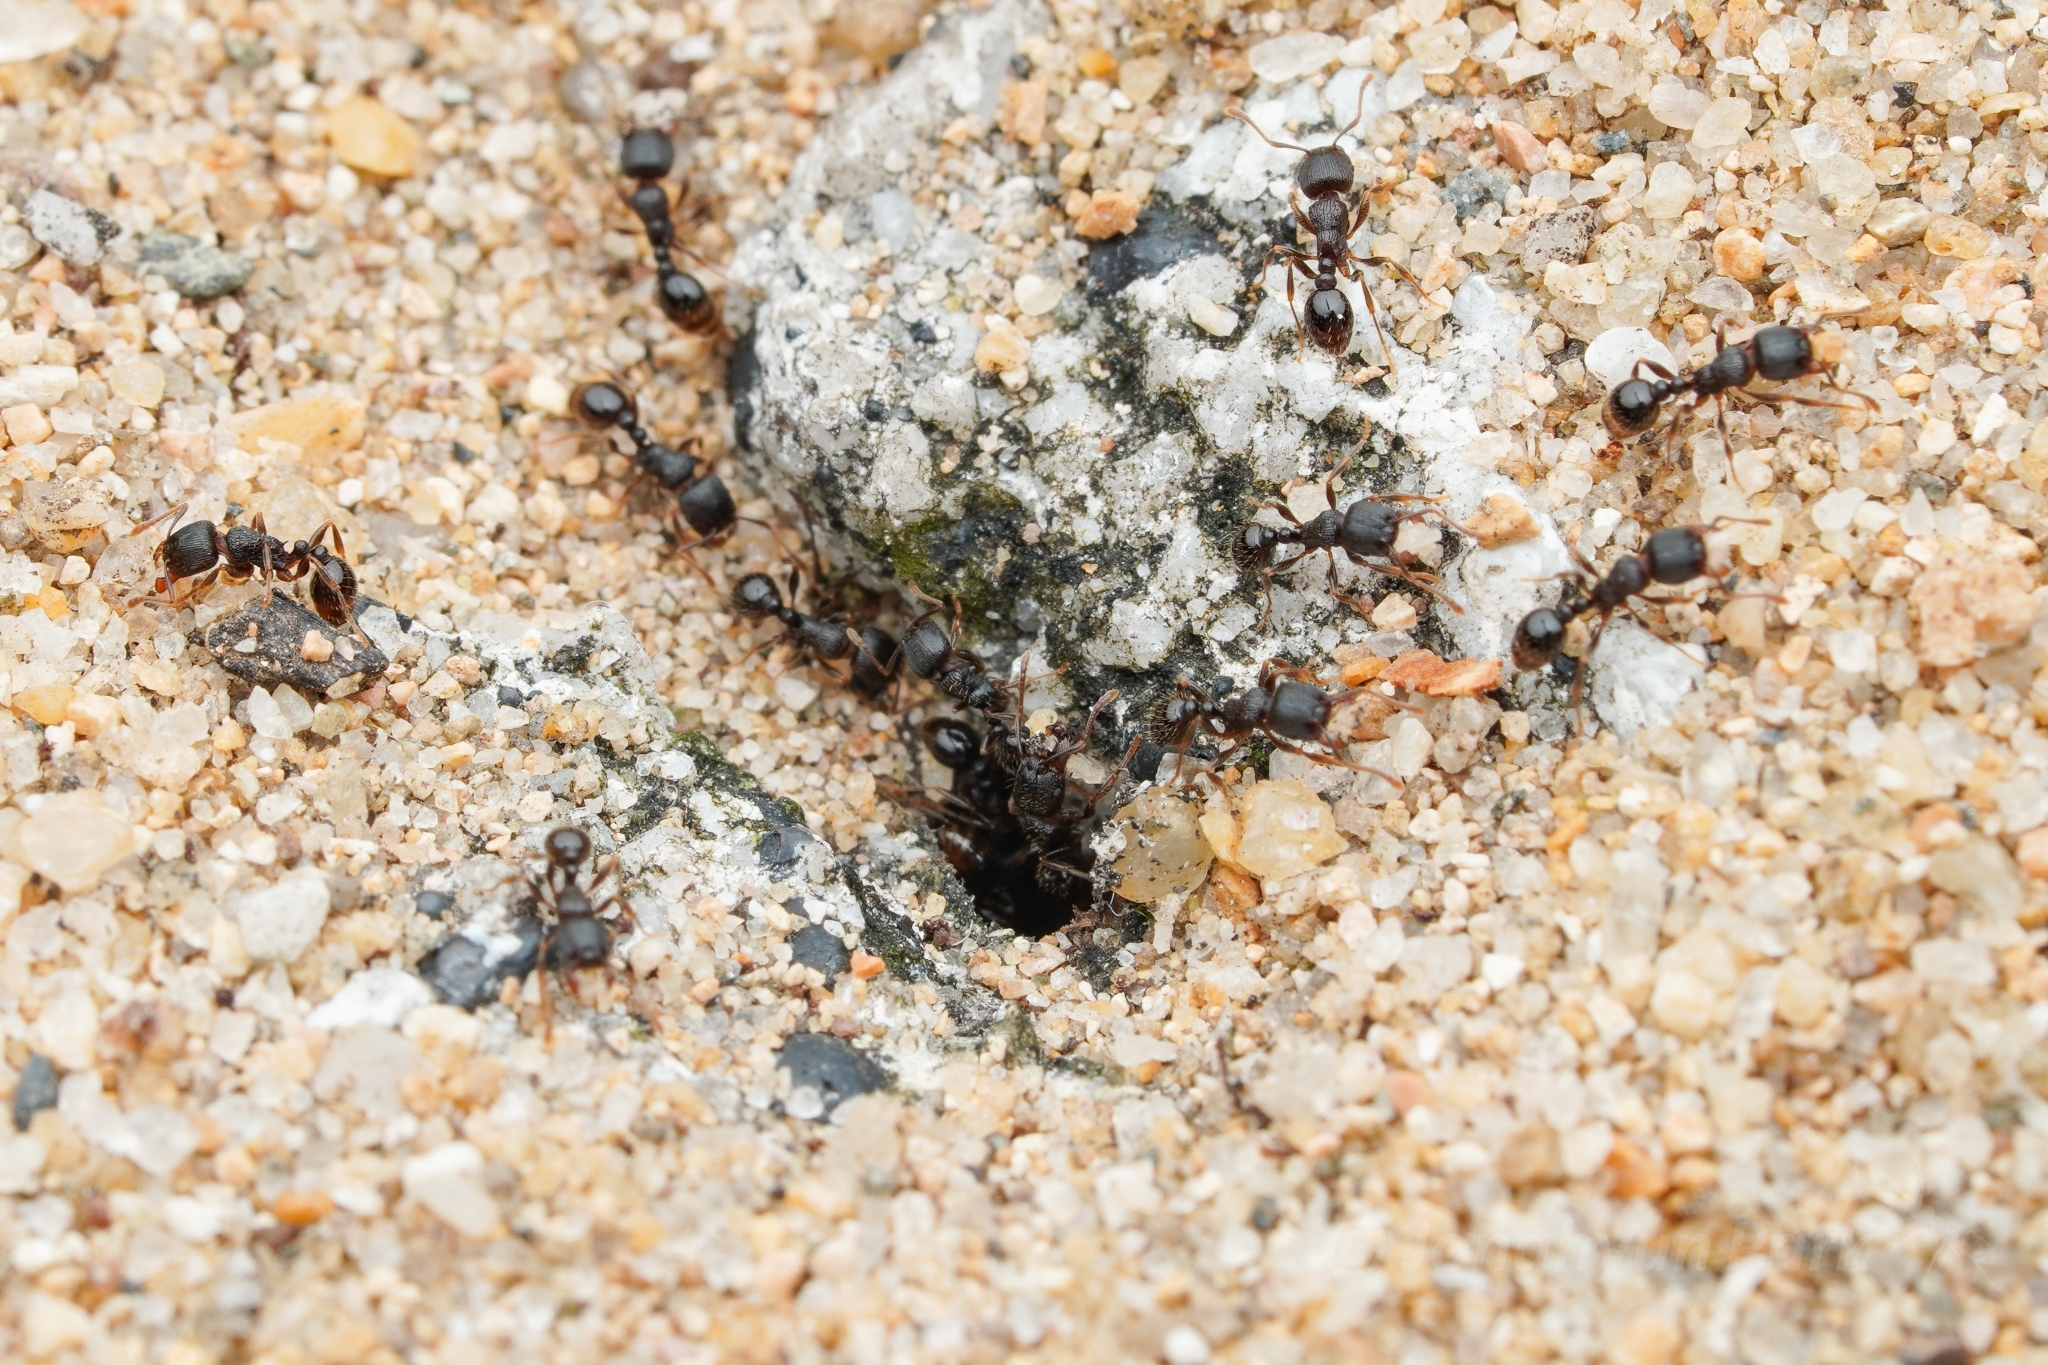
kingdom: Animalia
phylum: Arthropoda
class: Insecta
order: Hymenoptera
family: Formicidae
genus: Tetramorium
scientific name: Tetramorium tsushimae
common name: Ant
